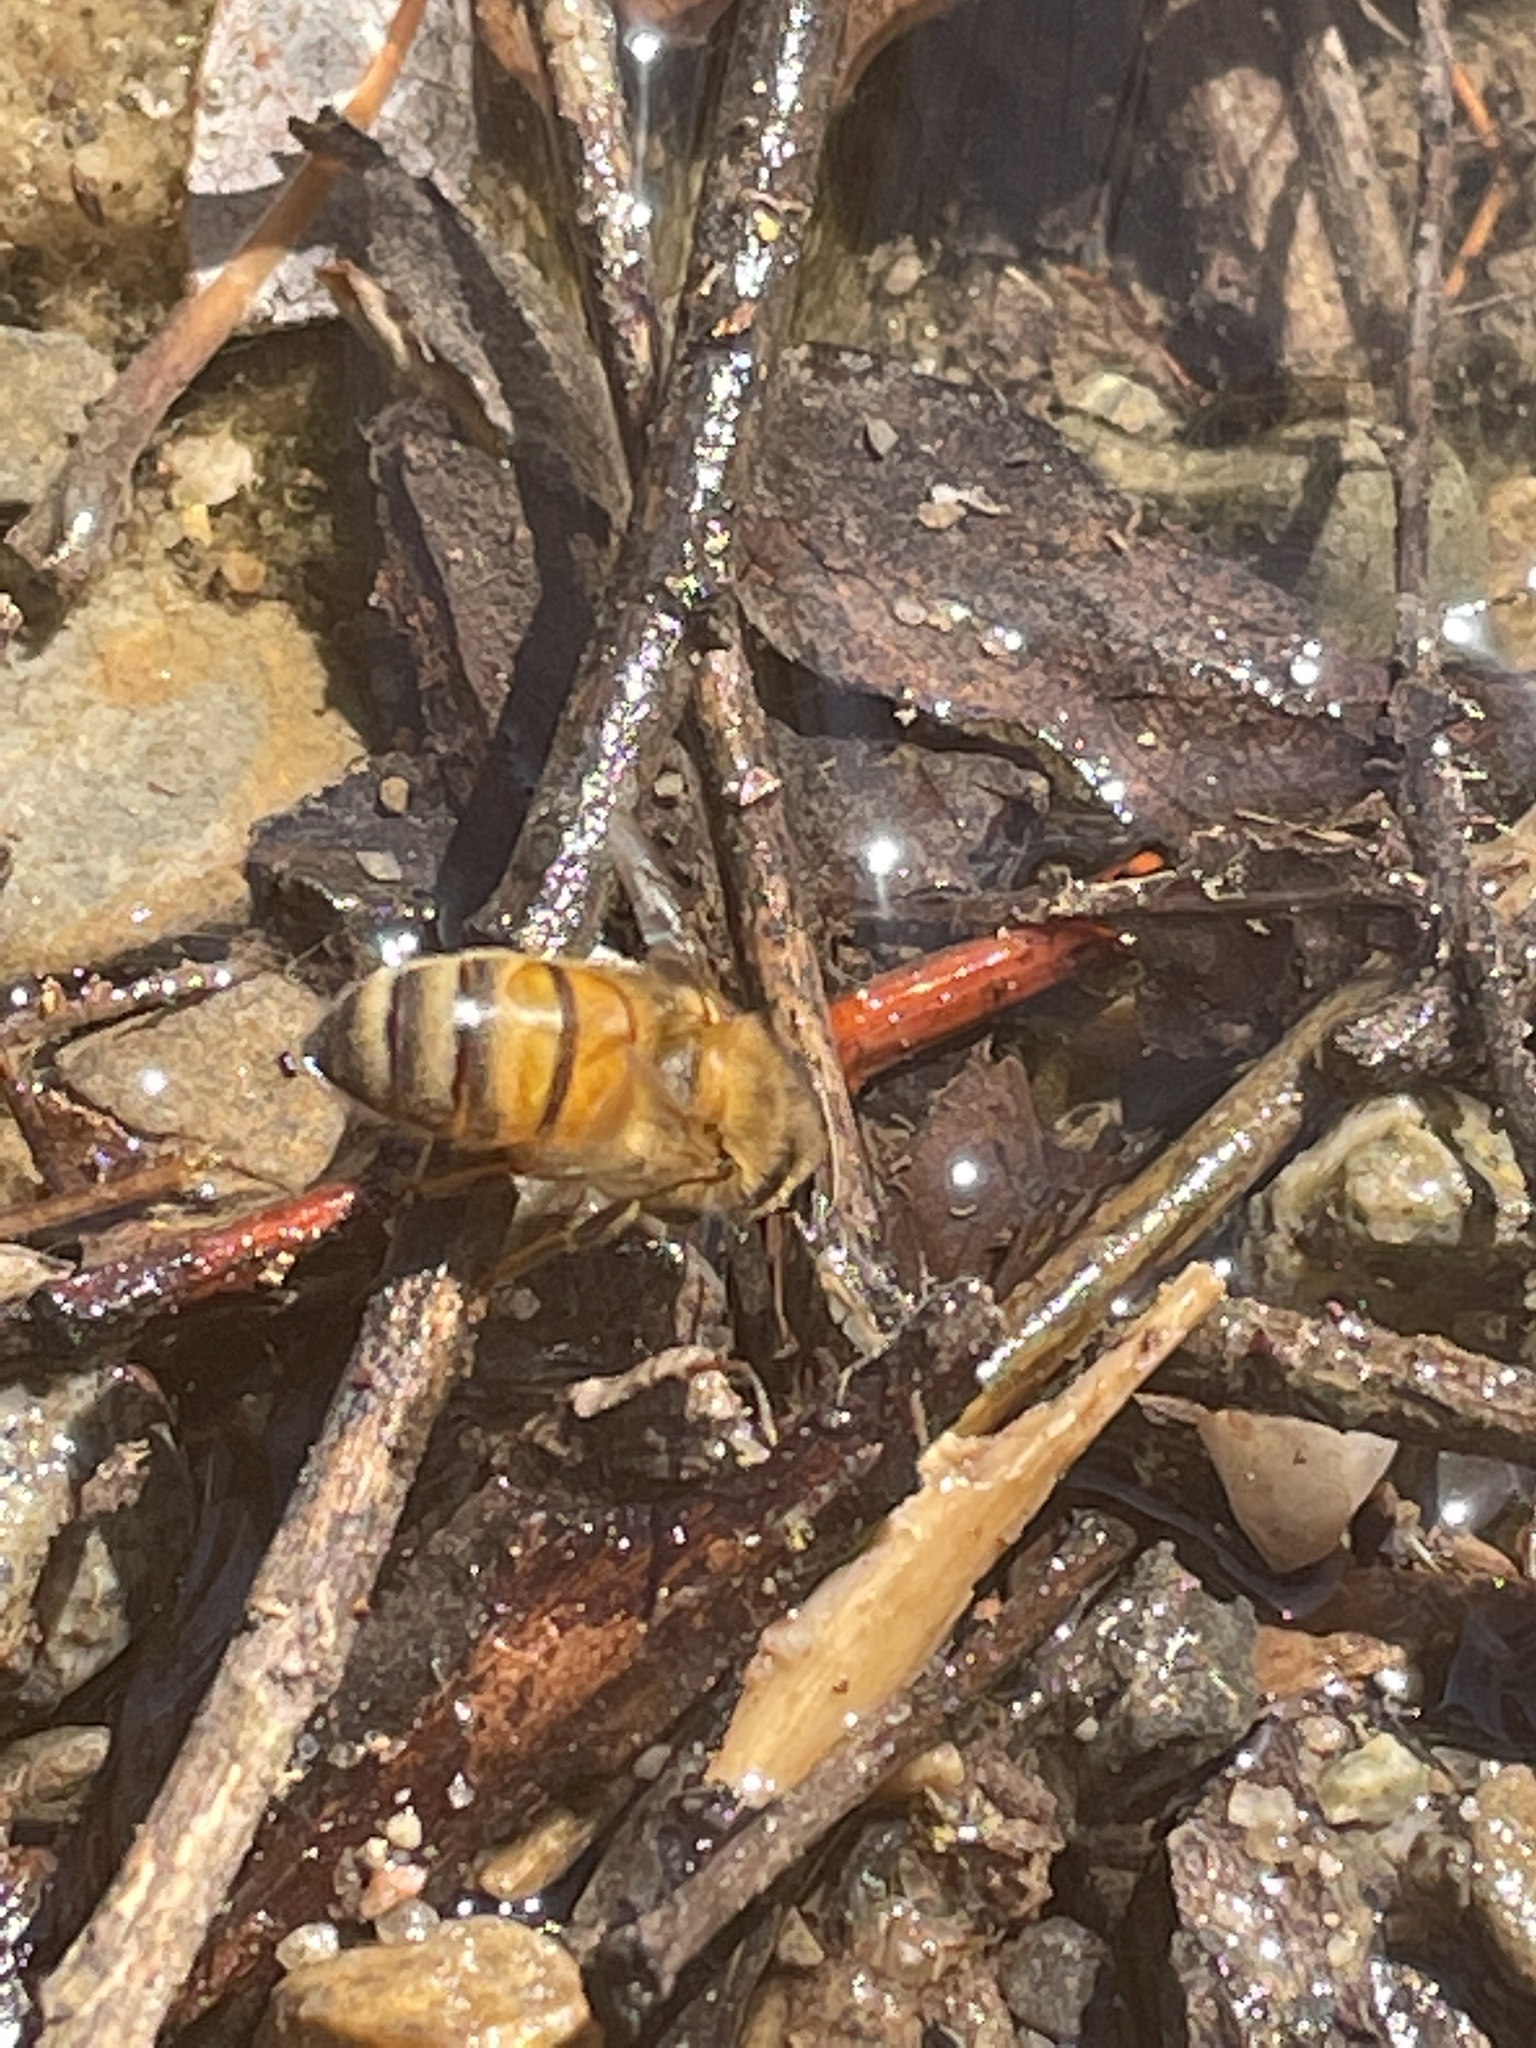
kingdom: Animalia
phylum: Arthropoda
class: Insecta
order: Hymenoptera
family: Apidae
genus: Apis
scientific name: Apis mellifera
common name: Honey bee
